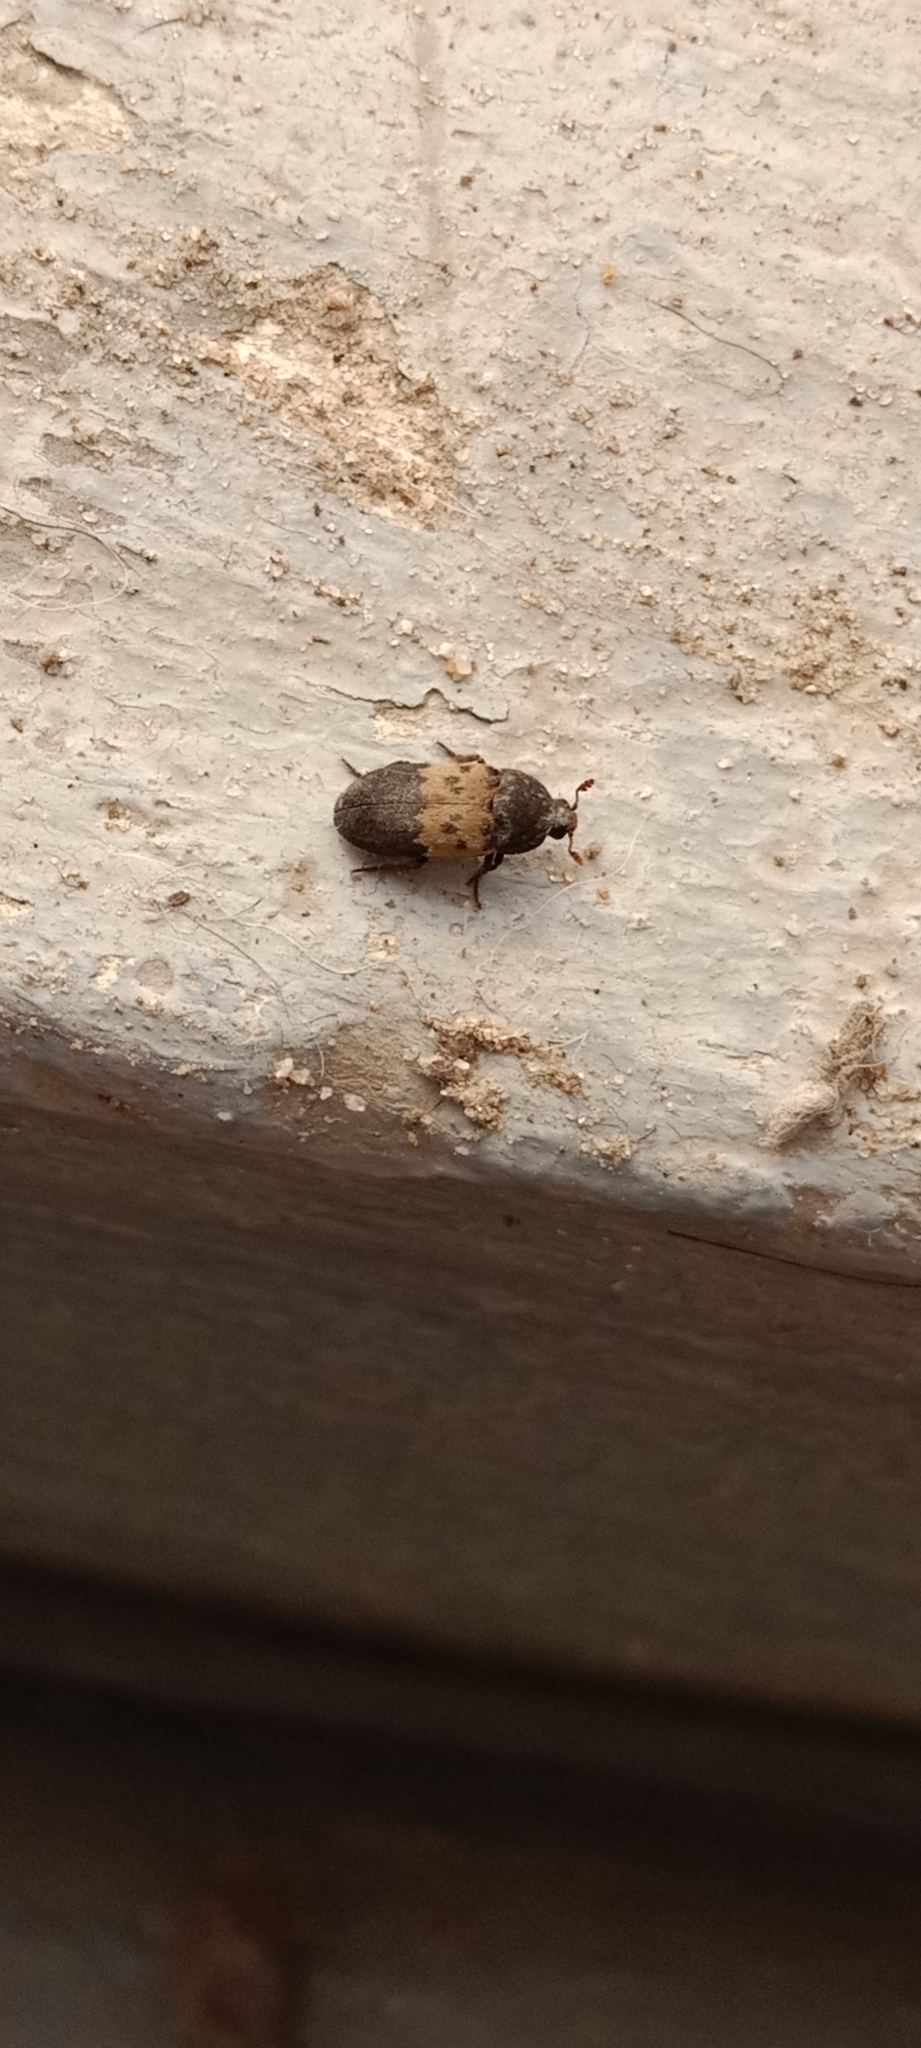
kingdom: Animalia
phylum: Arthropoda
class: Insecta
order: Coleoptera
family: Dermestidae
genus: Dermestes
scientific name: Dermestes lardarius
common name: Larder beetle
